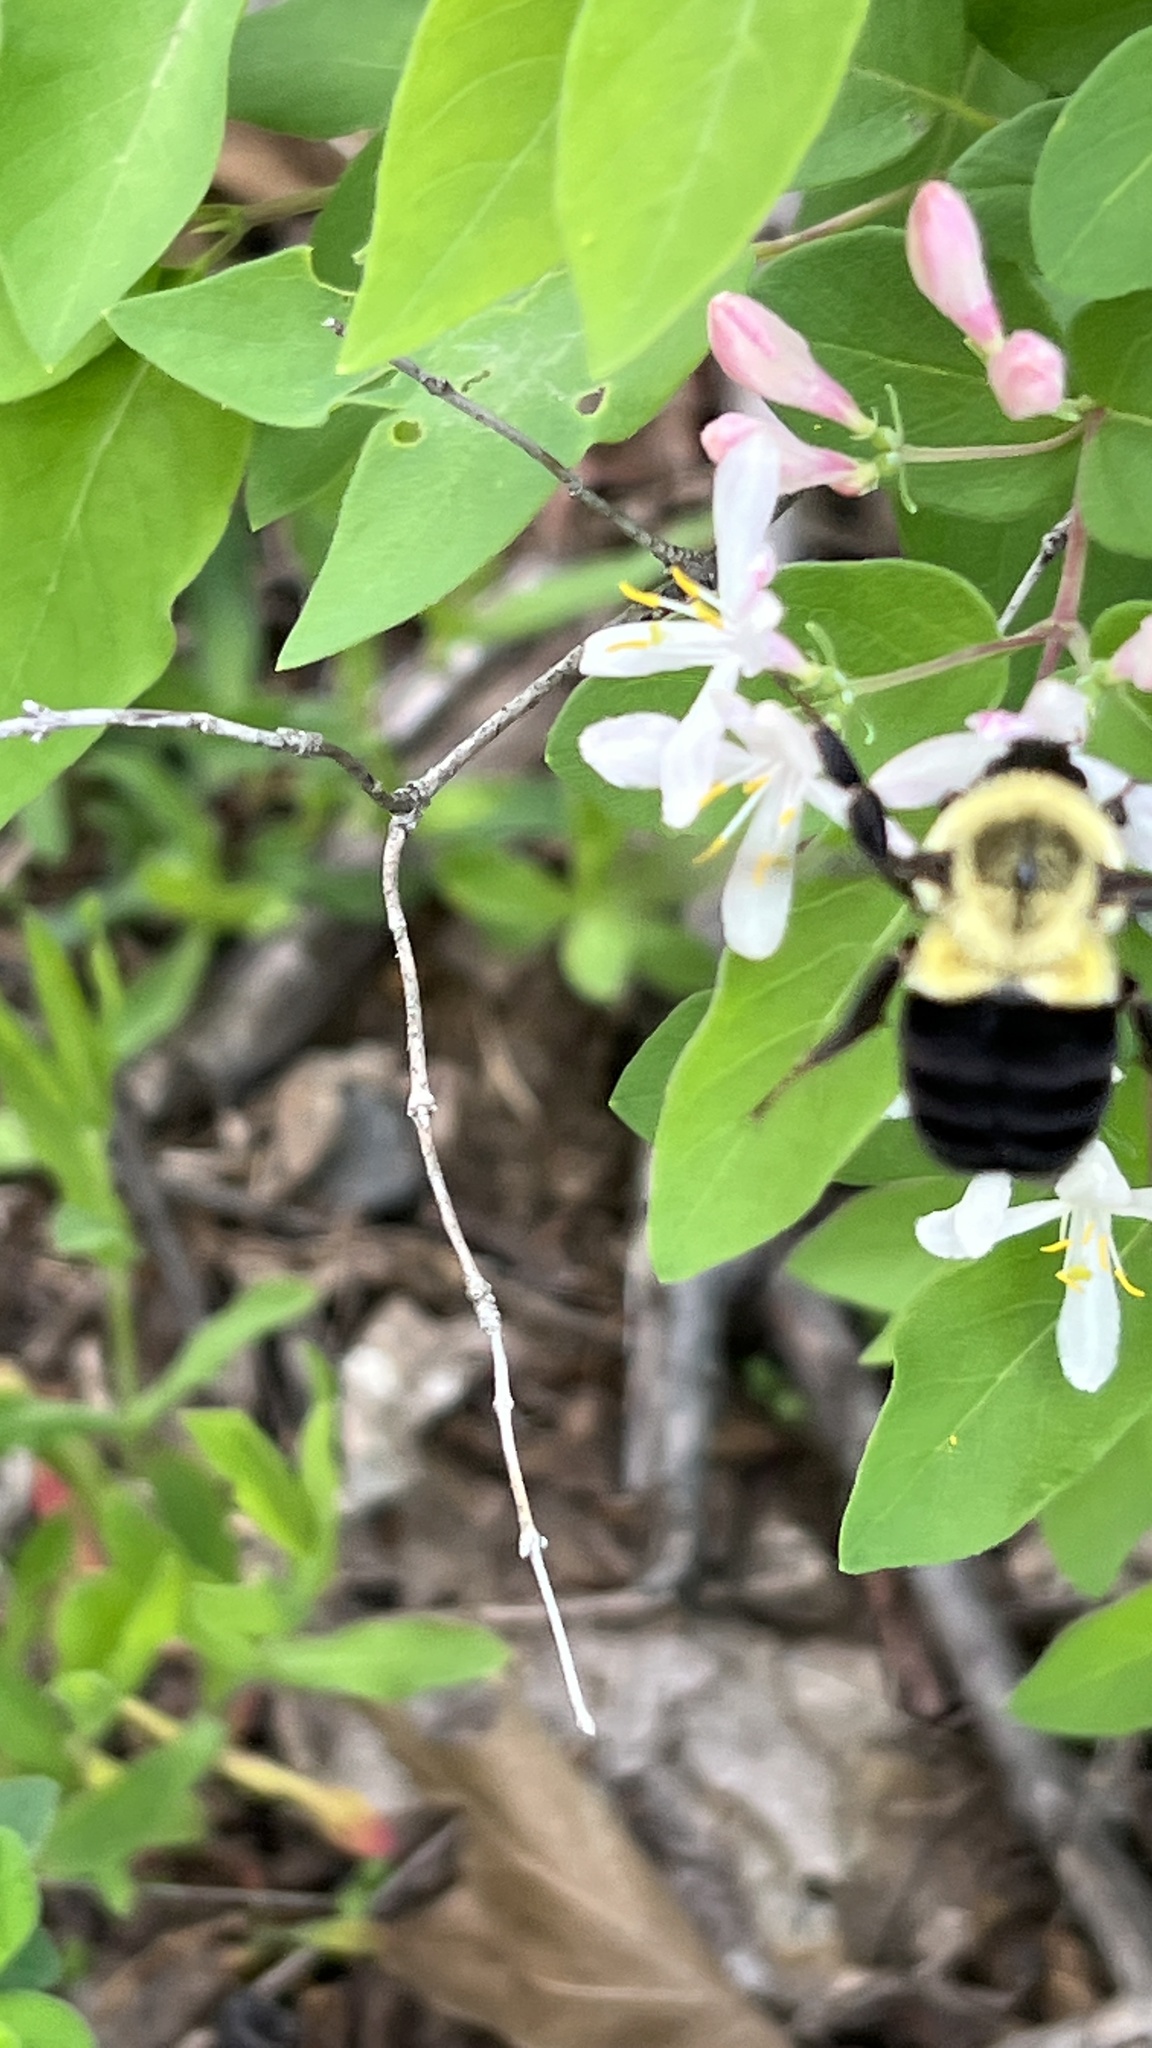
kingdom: Animalia
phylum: Arthropoda
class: Insecta
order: Hymenoptera
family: Apidae
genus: Bombus
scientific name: Bombus impatiens
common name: Common eastern bumble bee
